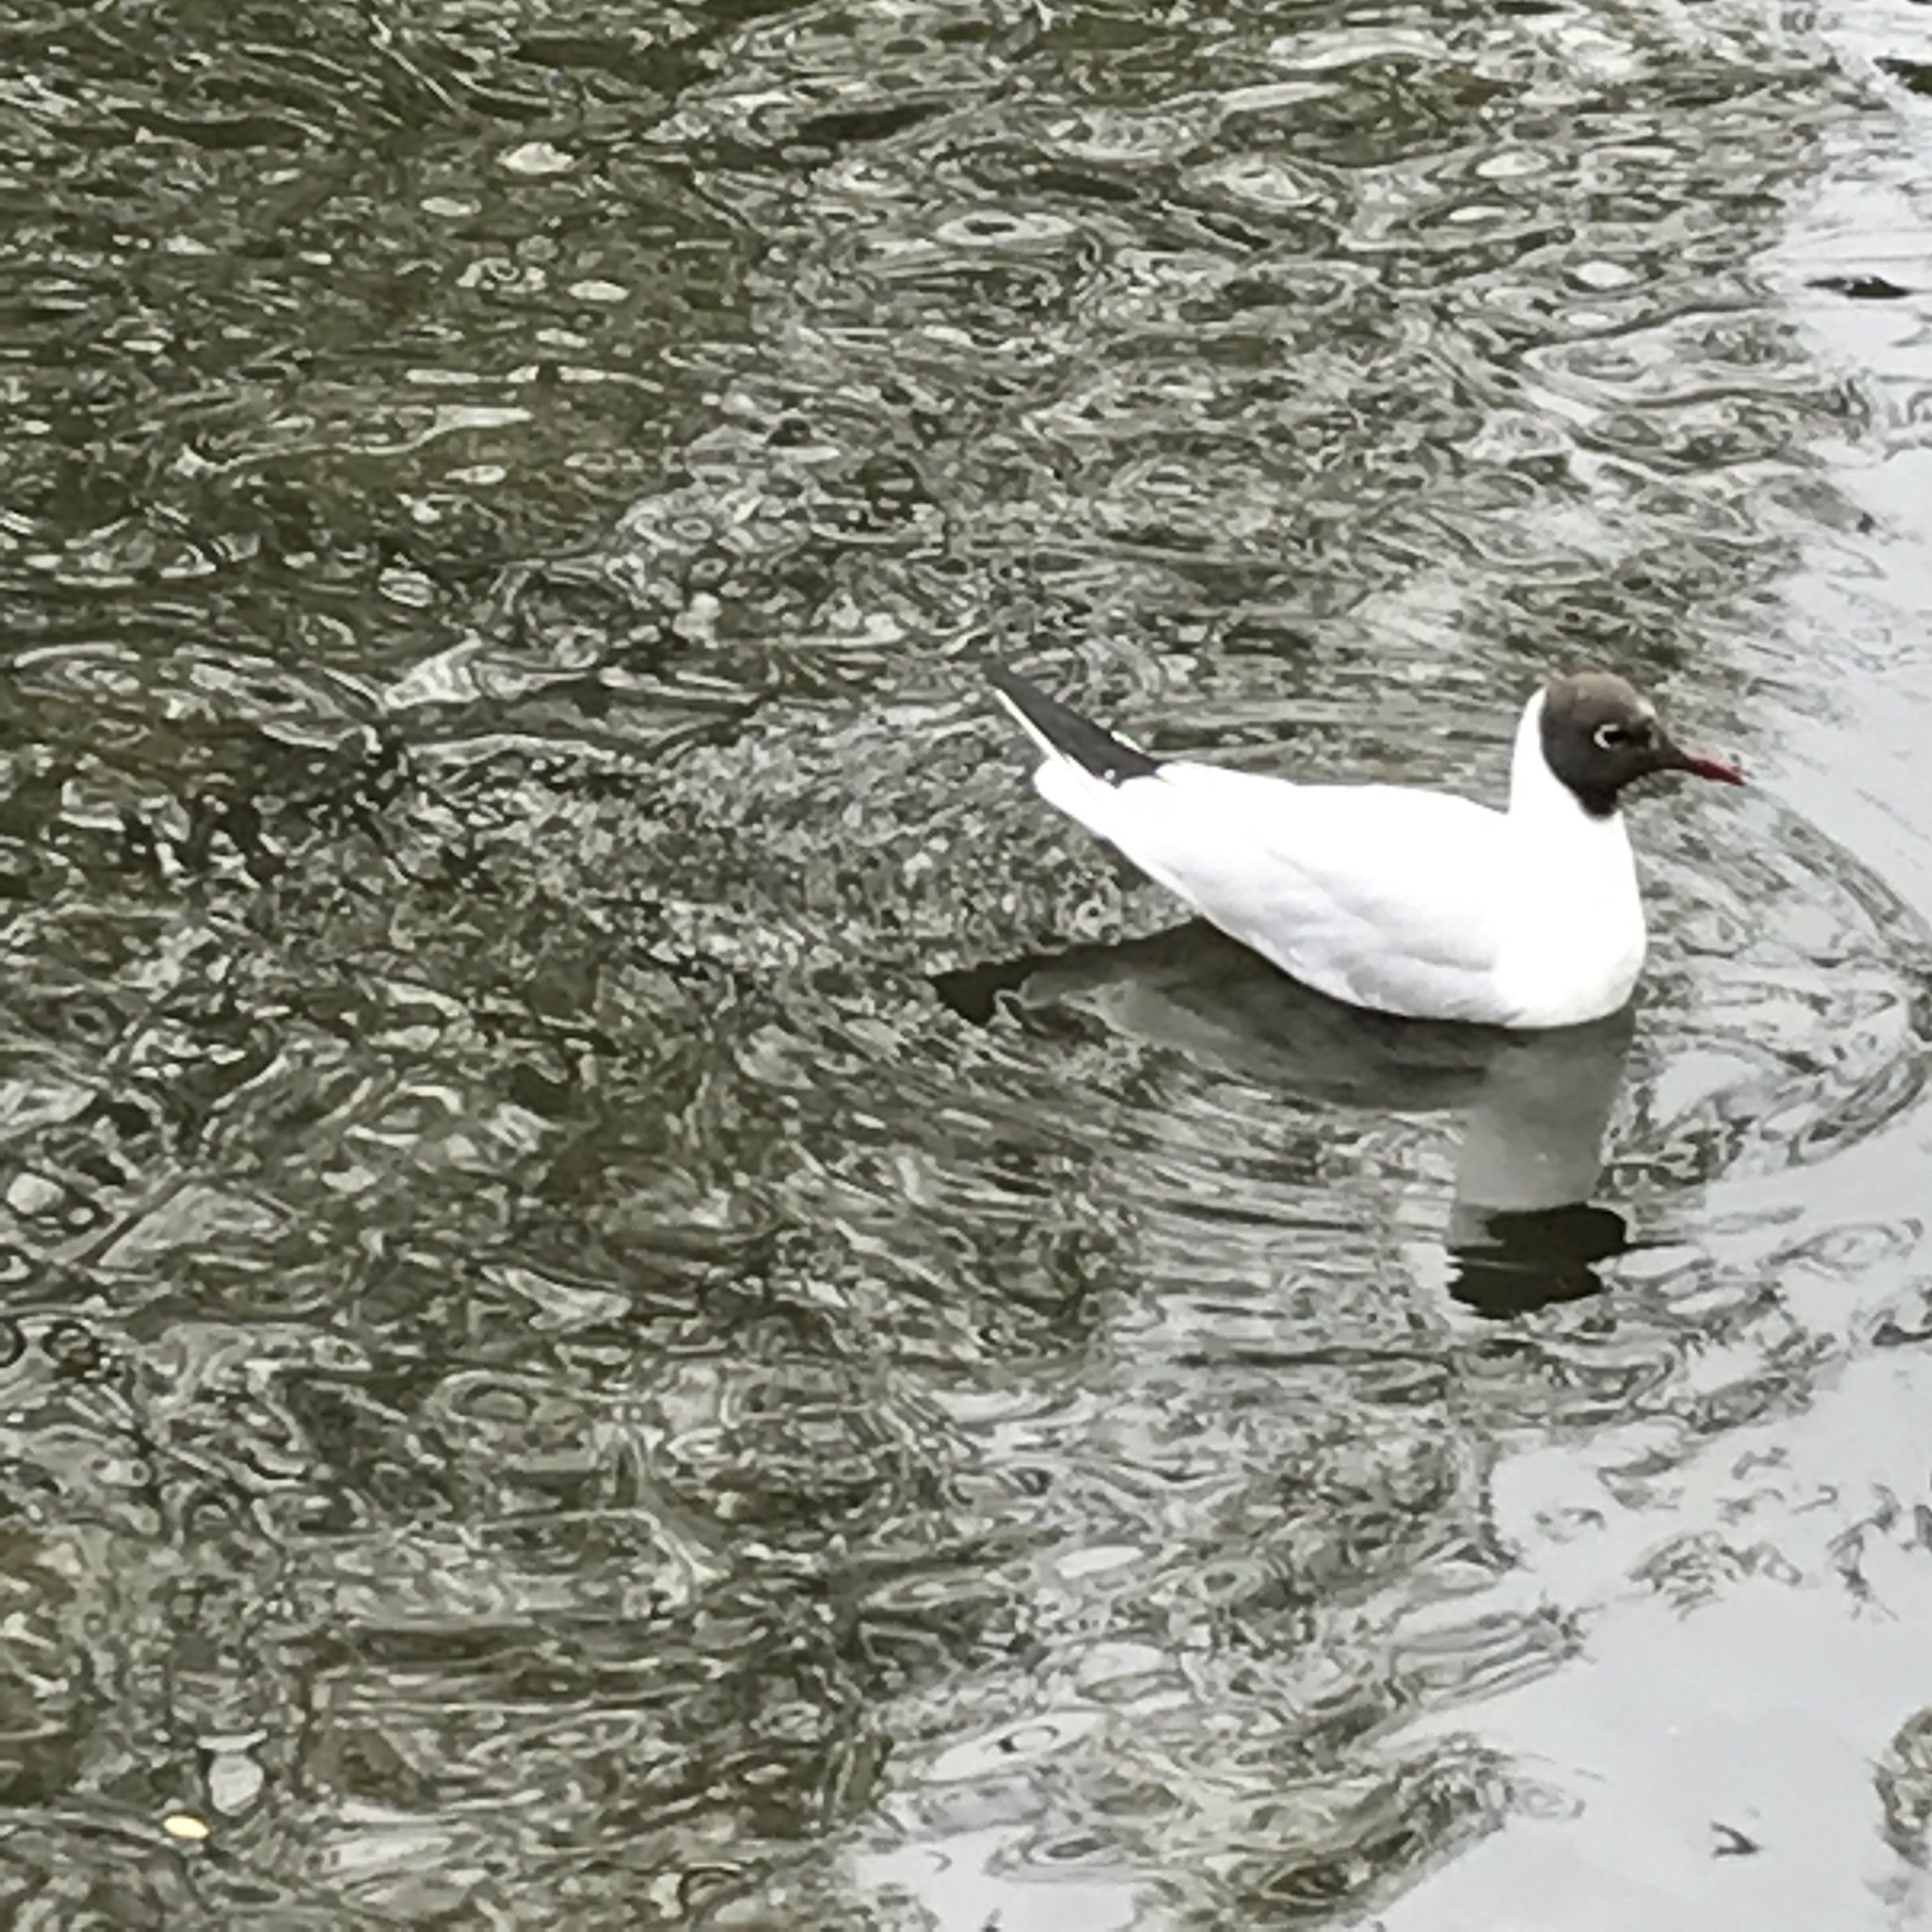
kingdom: Animalia
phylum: Chordata
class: Aves
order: Charadriiformes
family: Laridae
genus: Chroicocephalus
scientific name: Chroicocephalus ridibundus
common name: Black-headed gull
